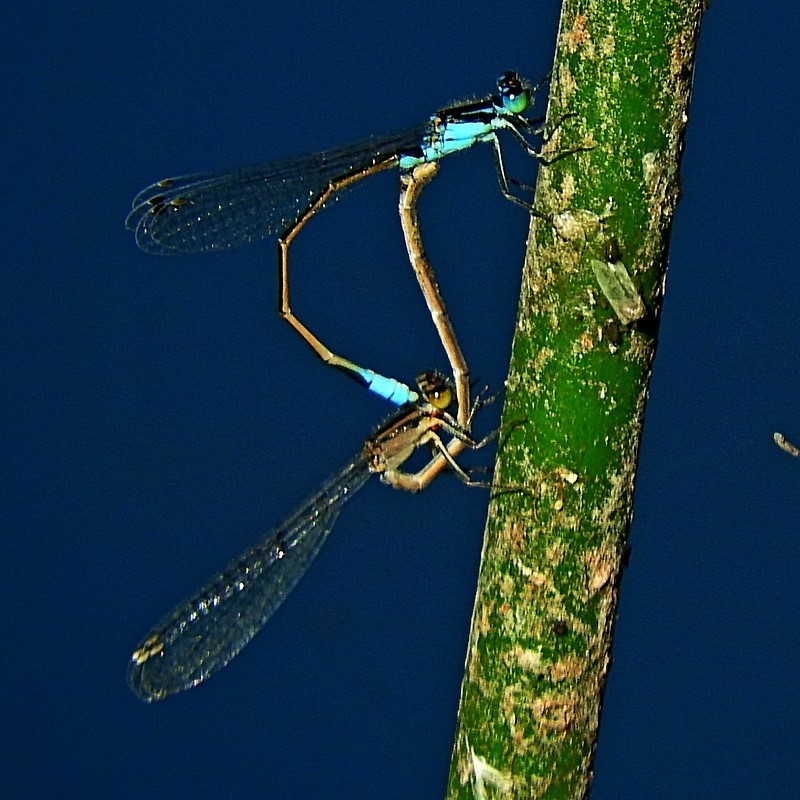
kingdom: Animalia
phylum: Arthropoda
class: Insecta
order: Odonata
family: Coenagrionidae
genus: Ischnura
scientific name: Ischnura heterosticta
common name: Common bluetail
